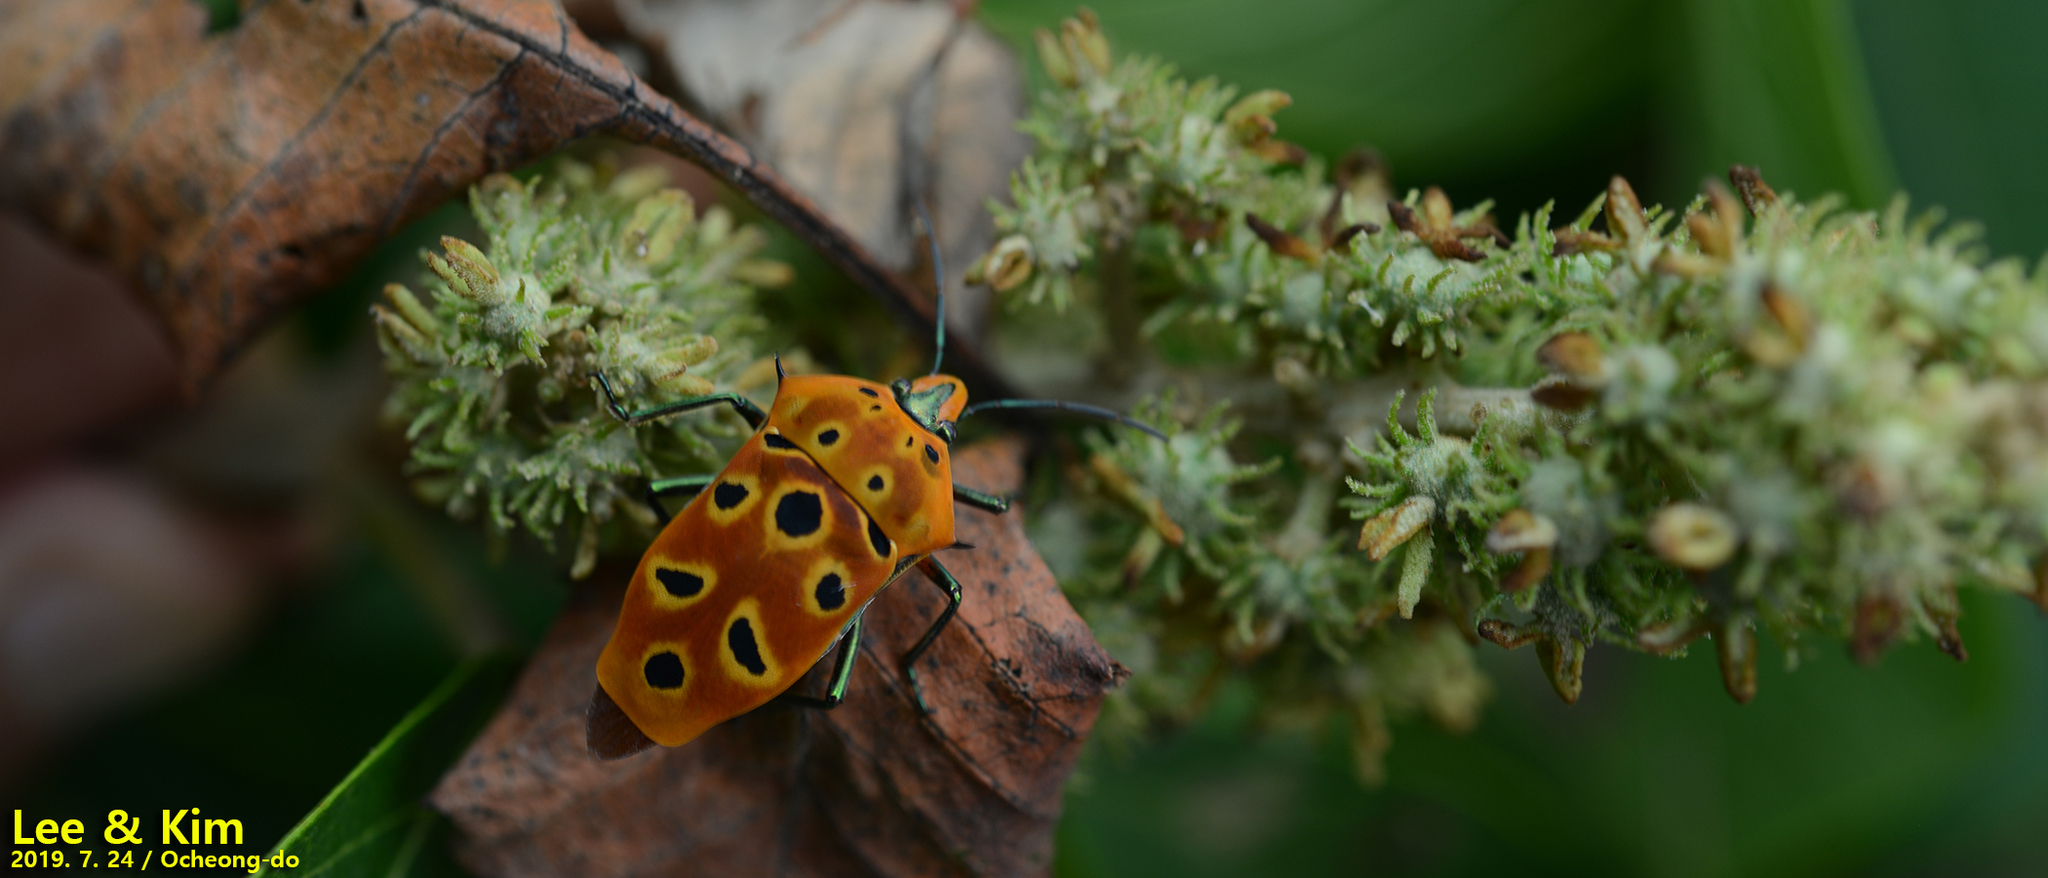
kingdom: Animalia
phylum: Arthropoda
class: Insecta
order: Hemiptera
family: Scutelleridae
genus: Cantao
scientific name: Cantao ocellatus
